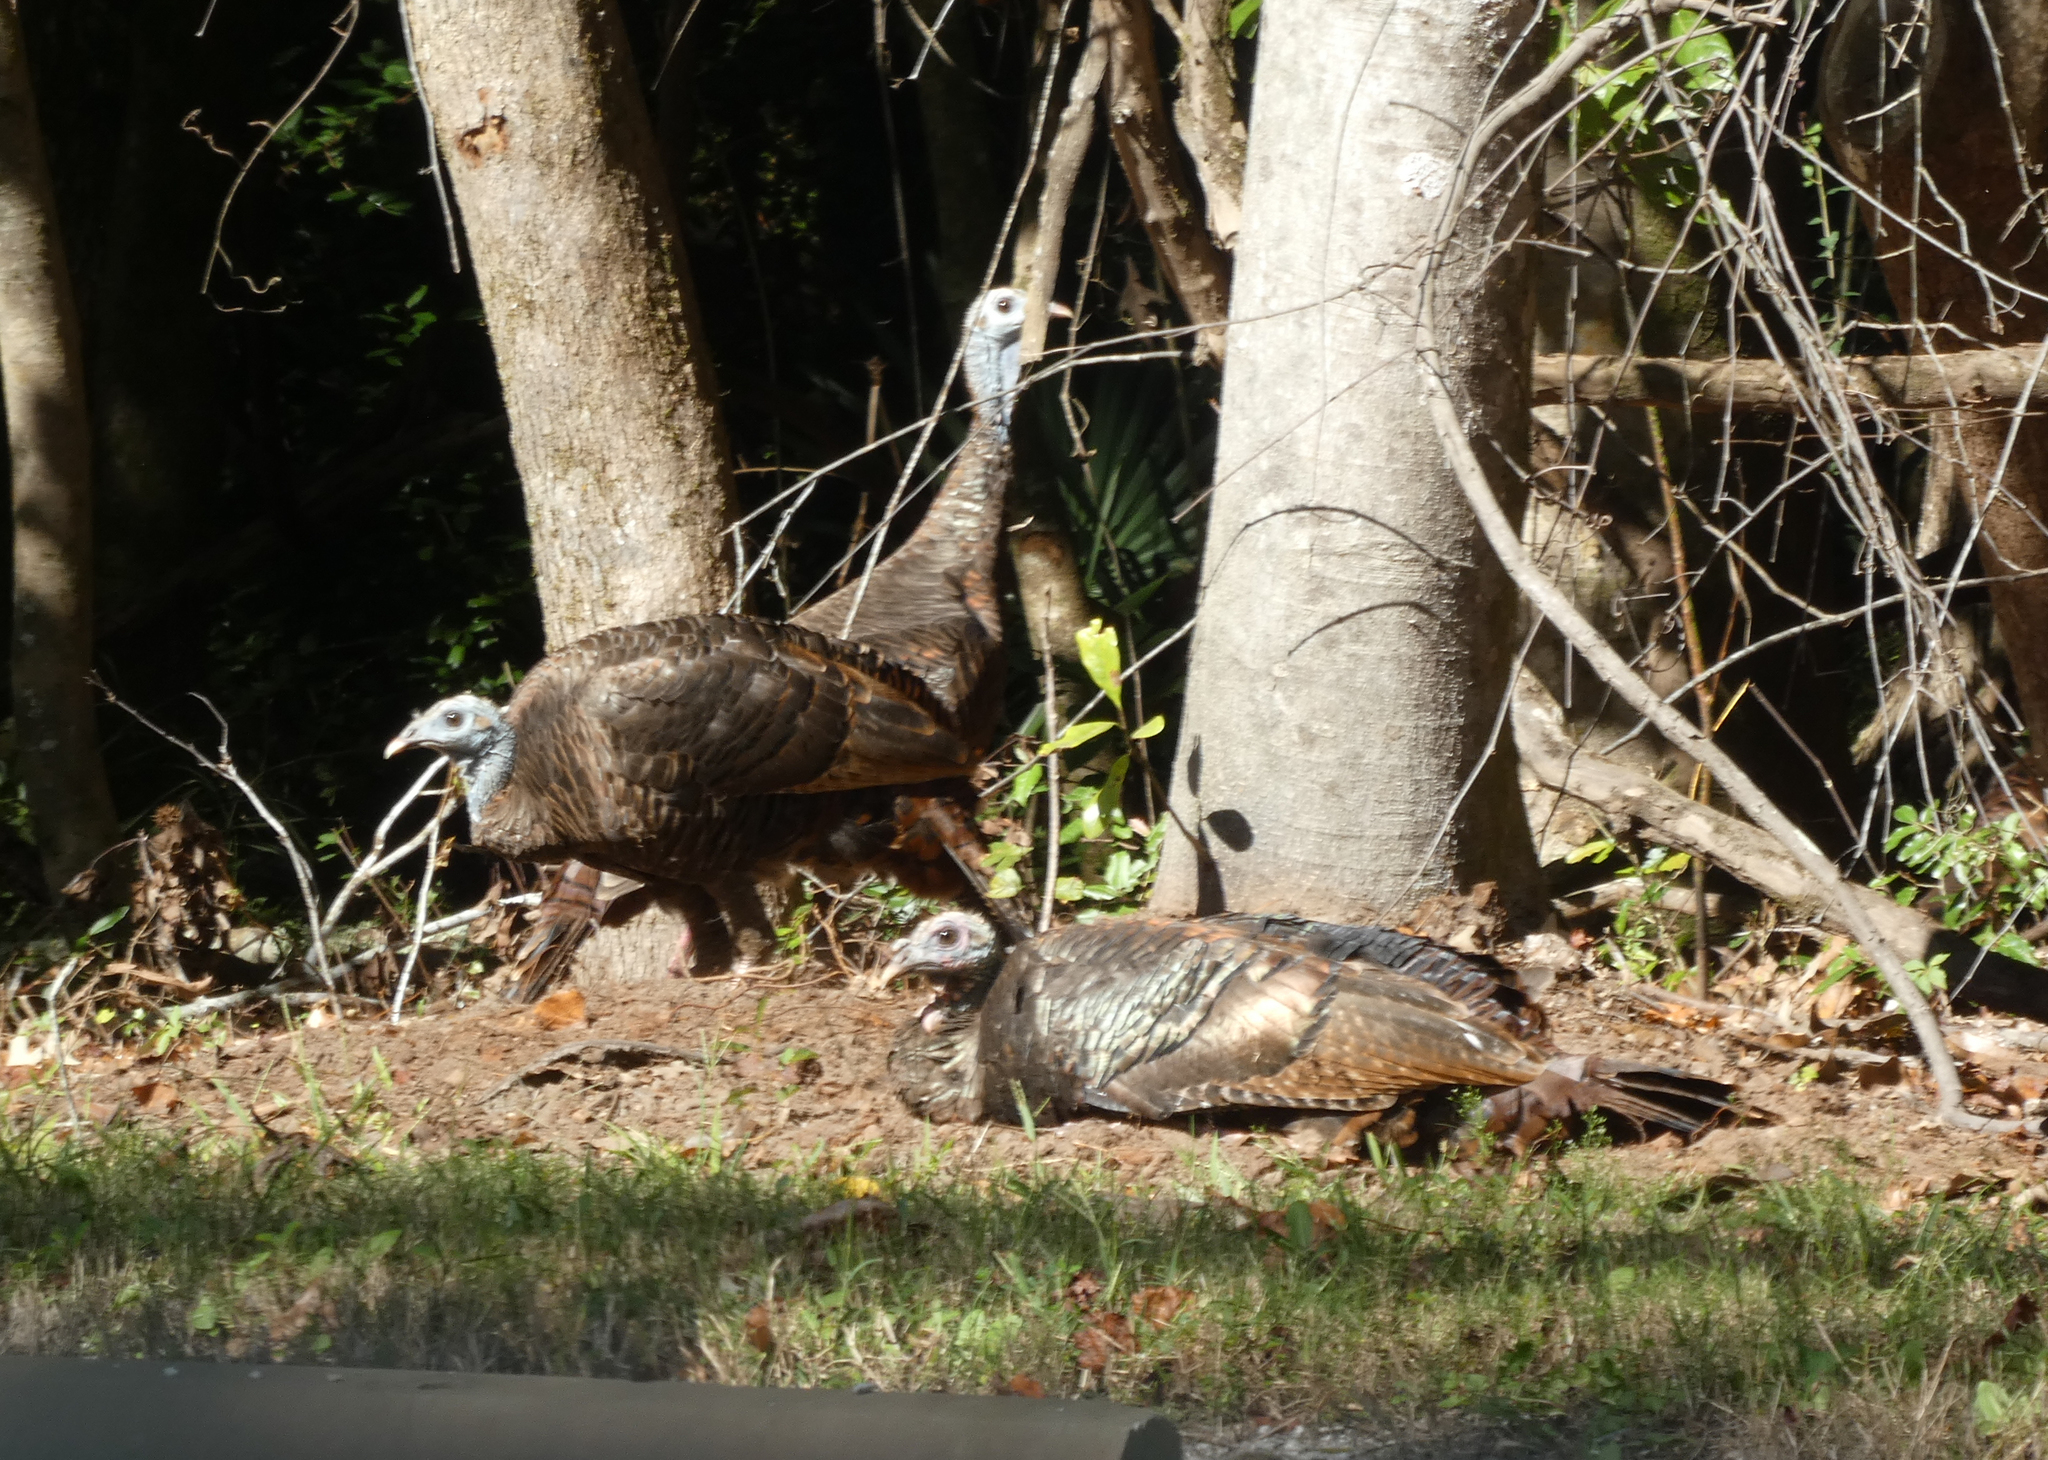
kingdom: Animalia
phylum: Chordata
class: Aves
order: Galliformes
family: Phasianidae
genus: Meleagris
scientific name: Meleagris gallopavo
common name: Wild turkey
